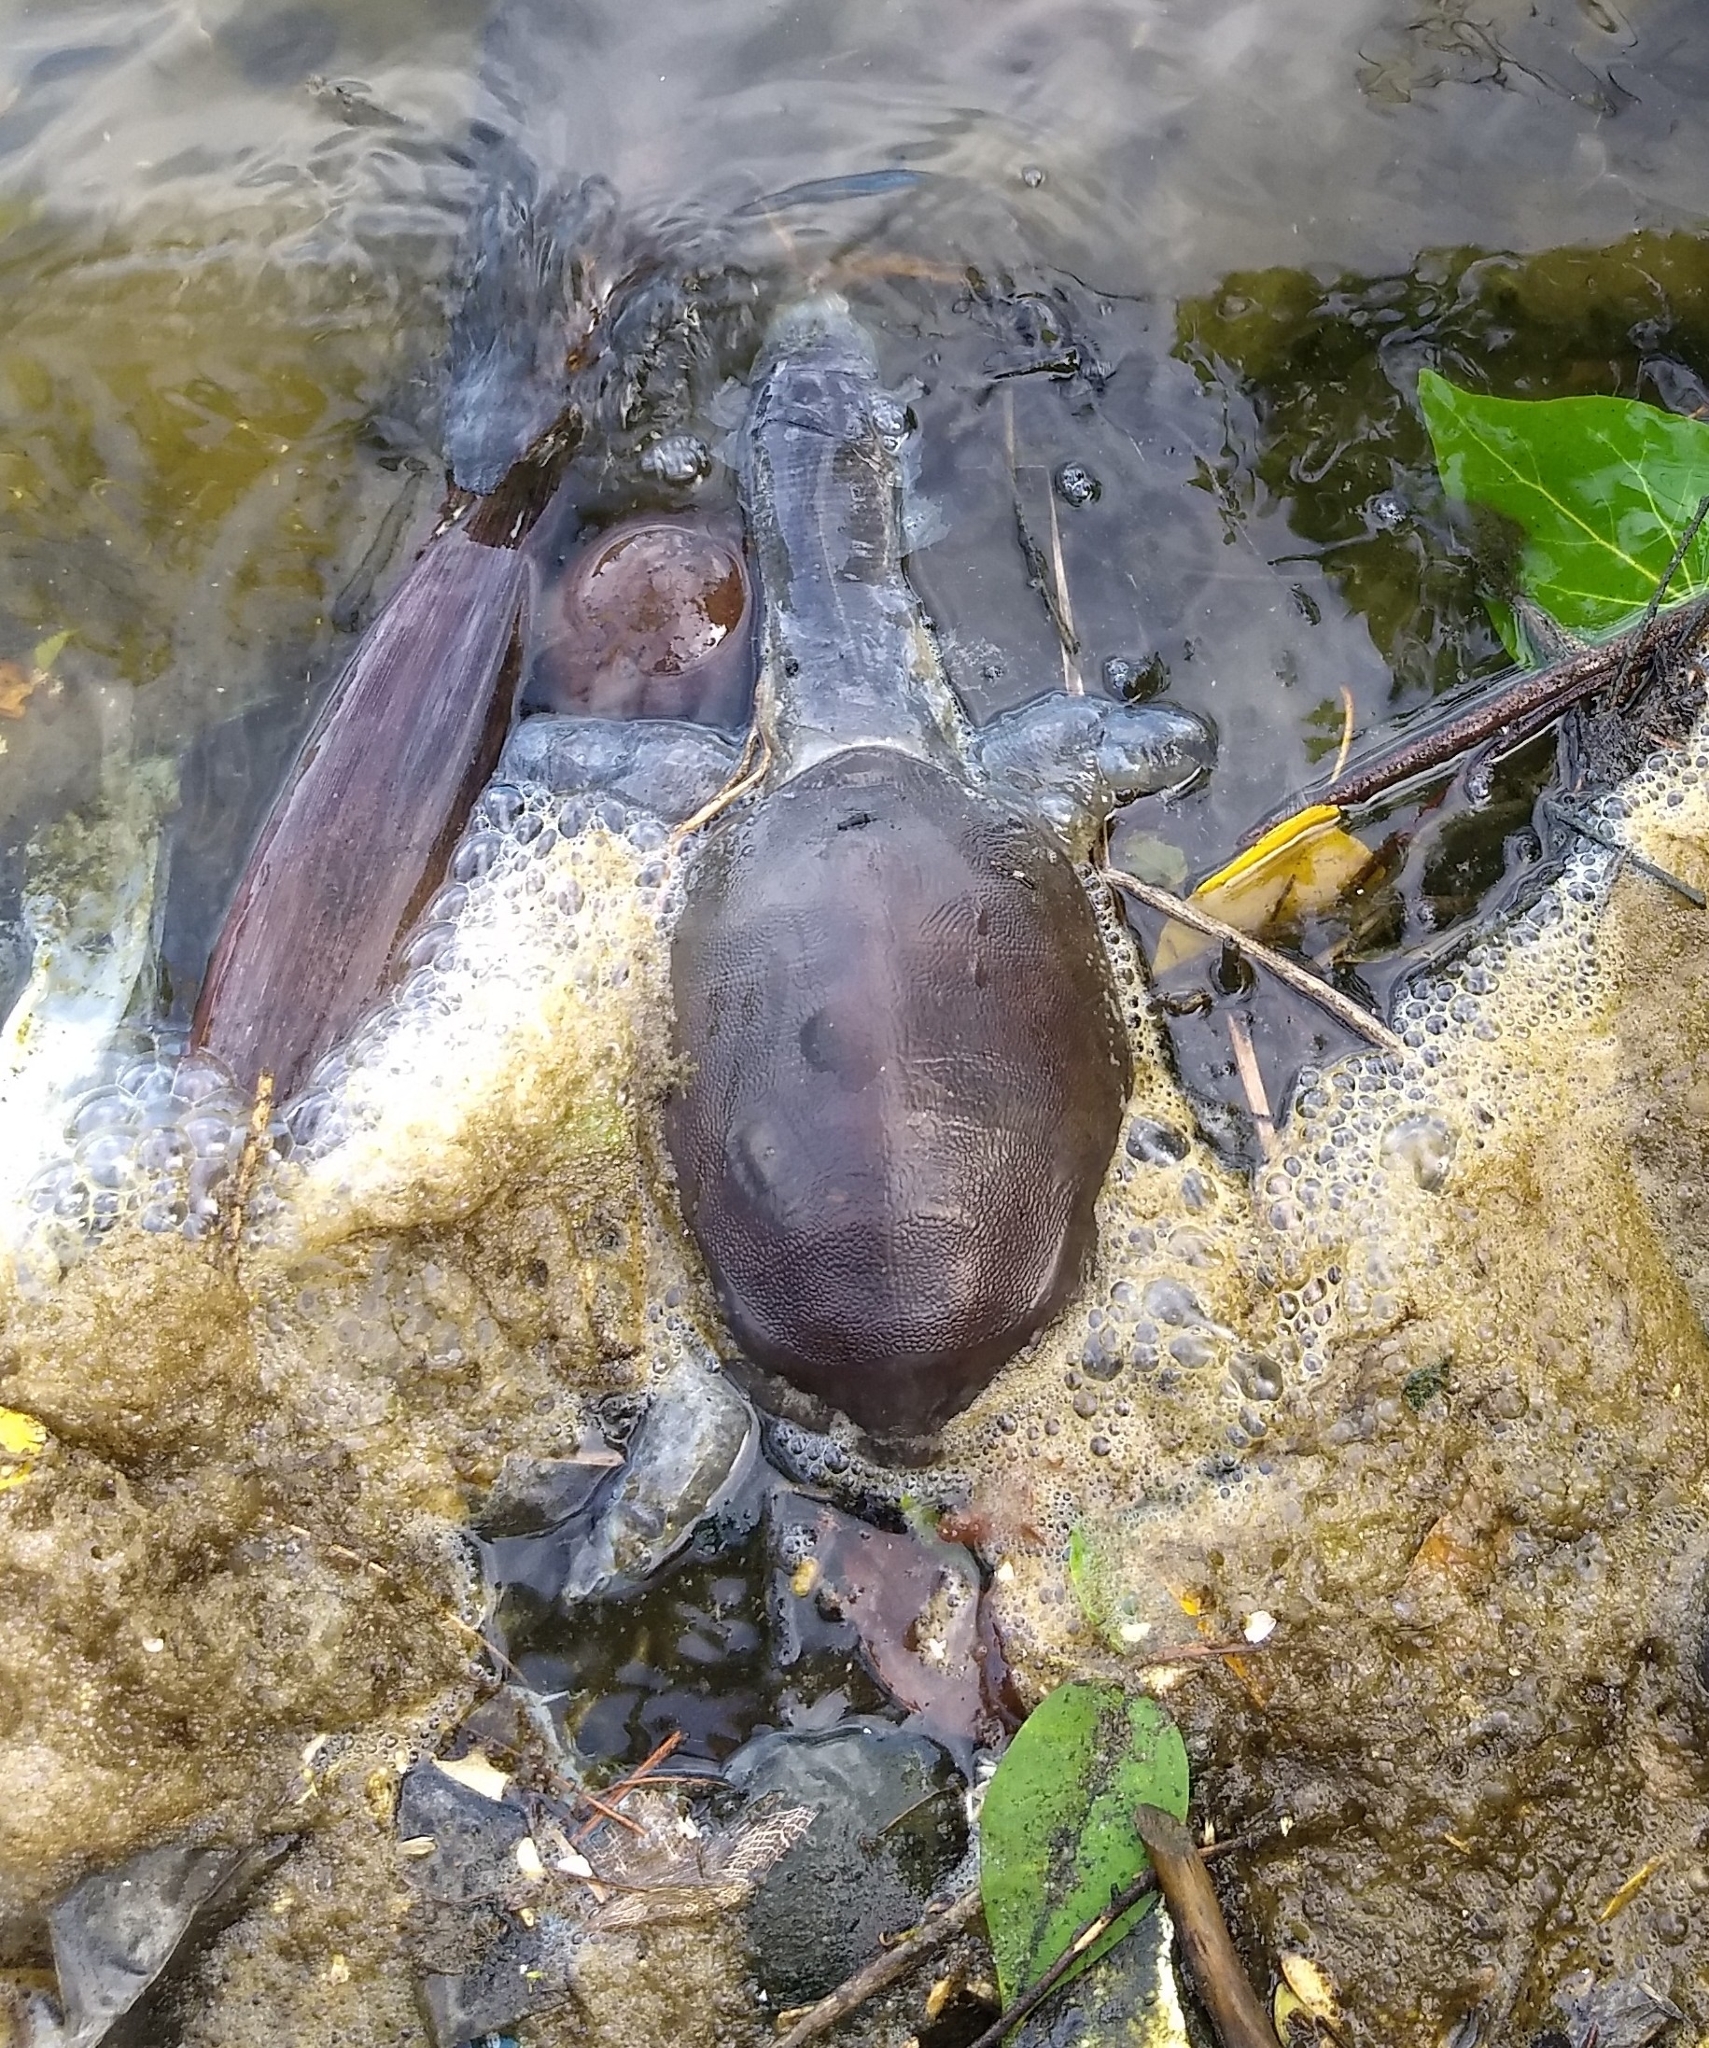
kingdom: Animalia
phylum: Chordata
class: Testudines
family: Trionychidae
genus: Lissemys
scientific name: Lissemys punctata
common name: Indian flap-shelled turtle
